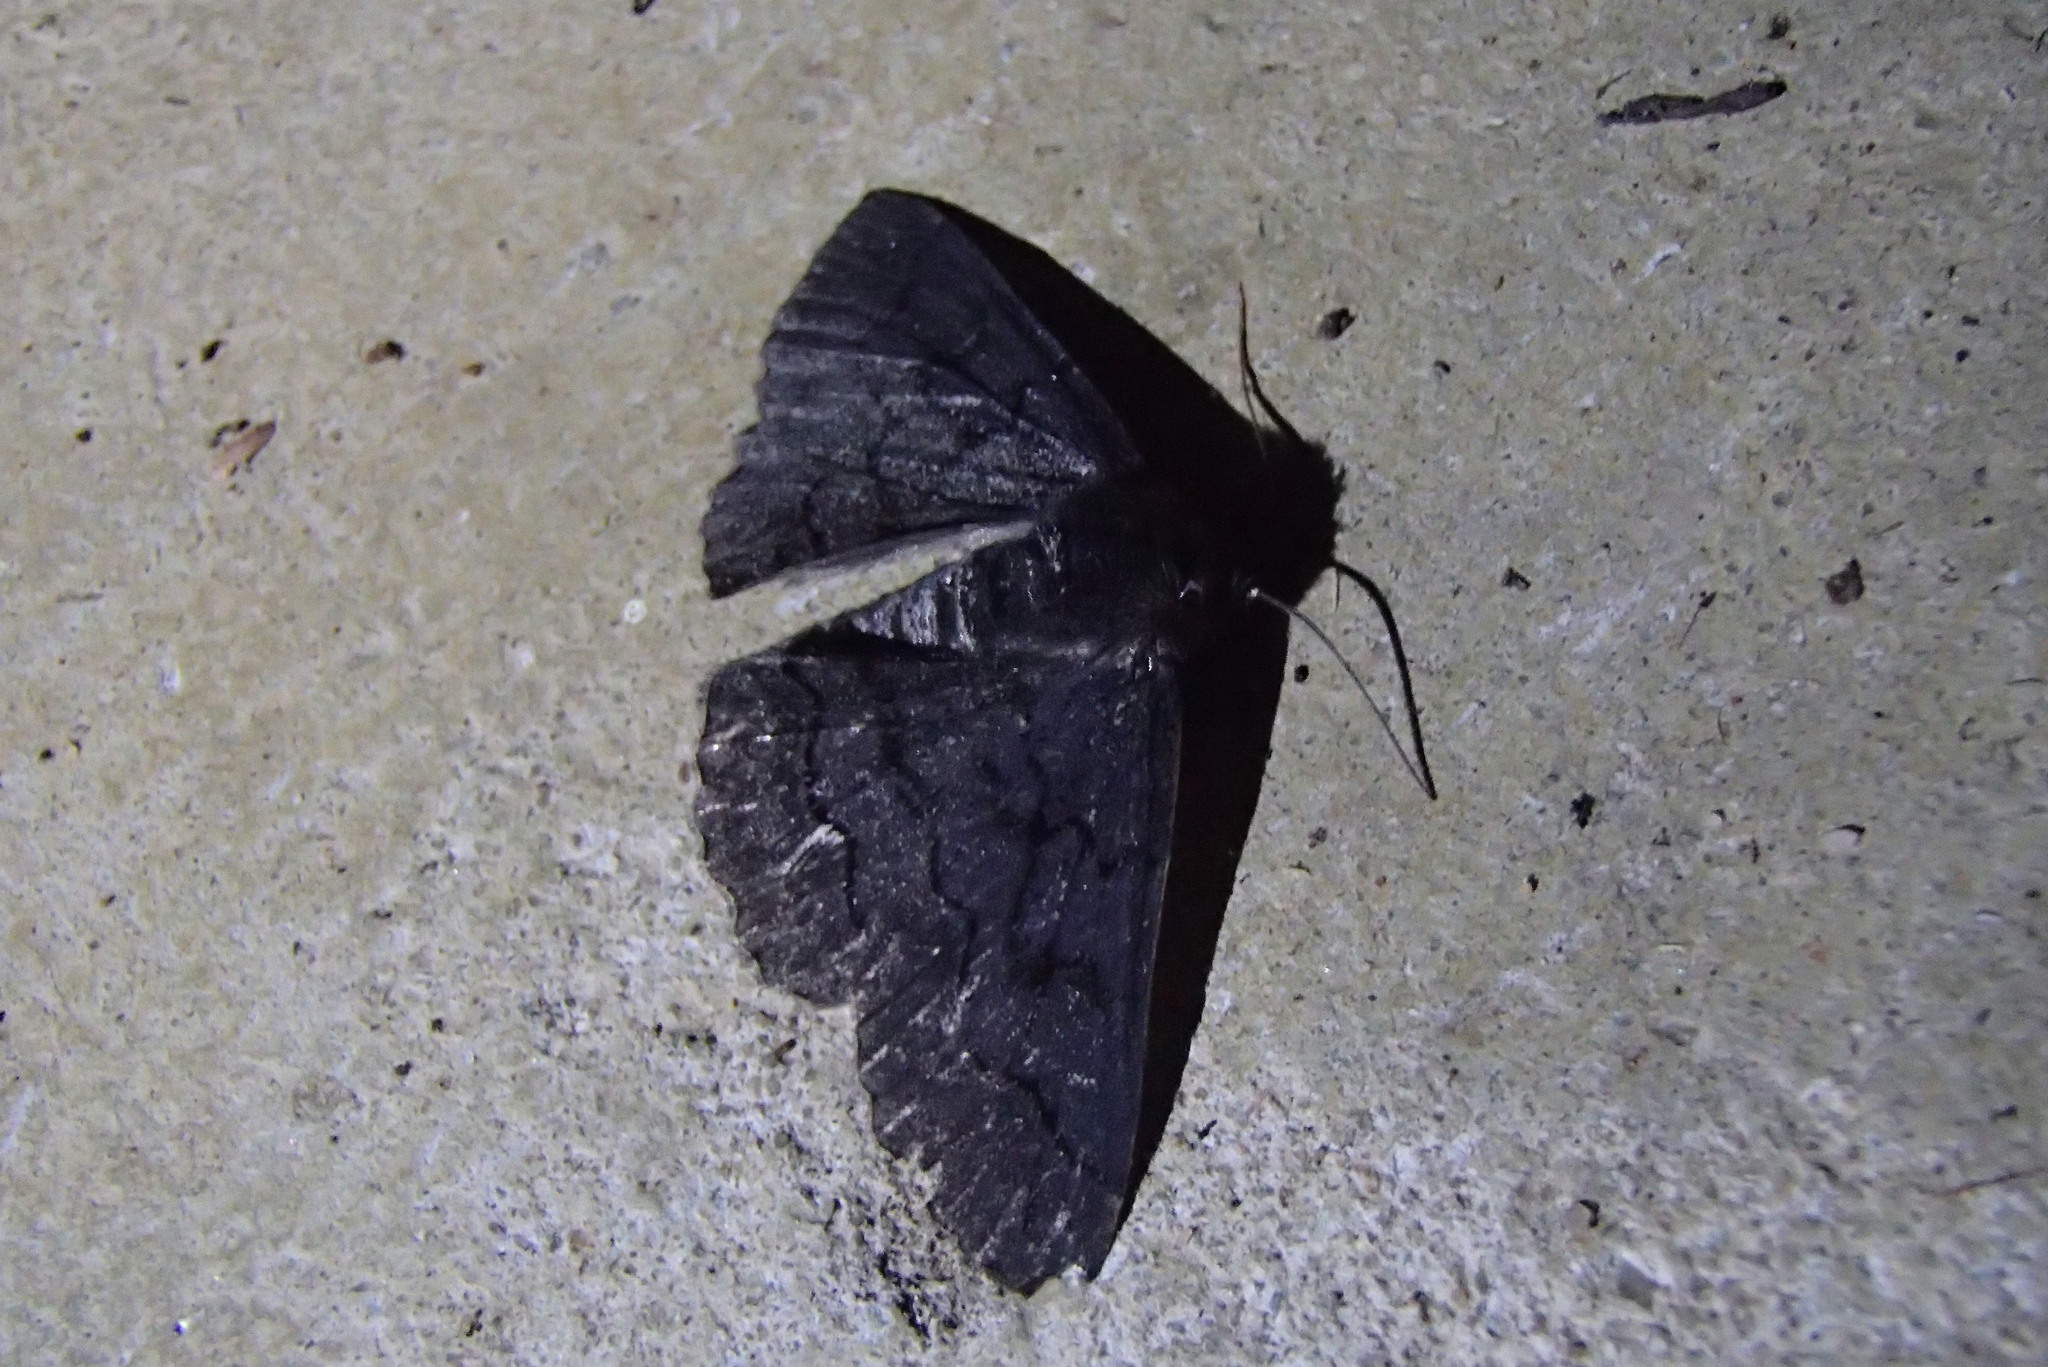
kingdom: Animalia
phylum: Arthropoda
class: Insecta
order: Lepidoptera
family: Geometridae
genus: Melanodes
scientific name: Melanodes anthracitaria
